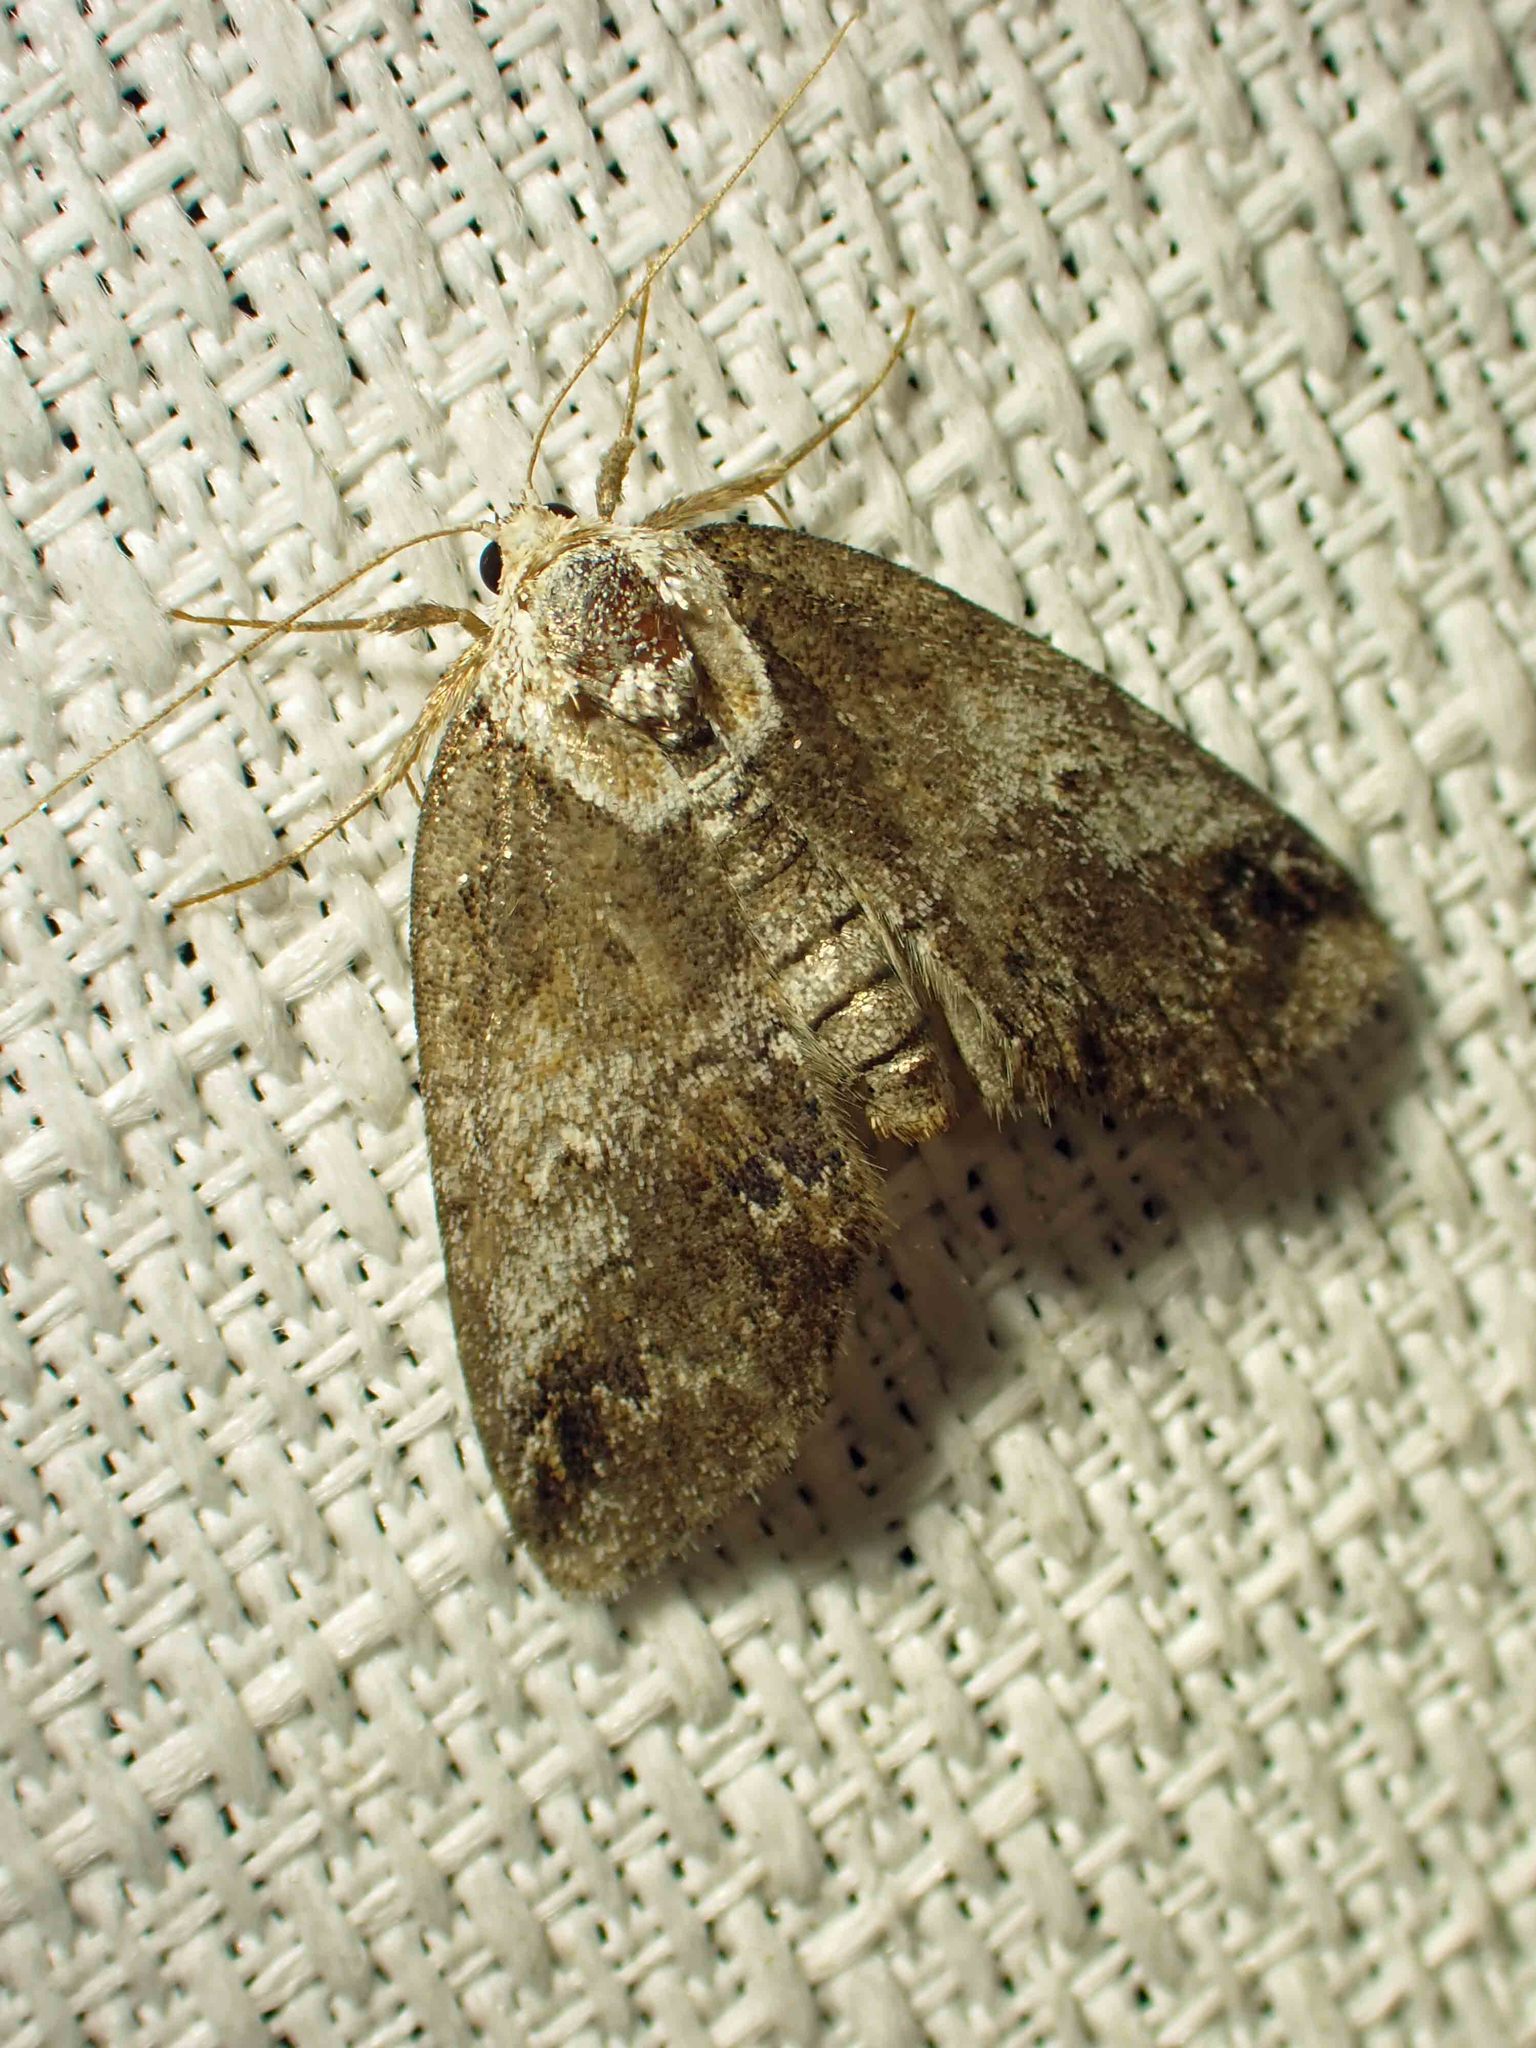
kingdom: Animalia
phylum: Arthropoda
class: Insecta
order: Lepidoptera
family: Nolidae
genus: Baileya
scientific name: Baileya ophthalmica
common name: Eyed baileya moth
